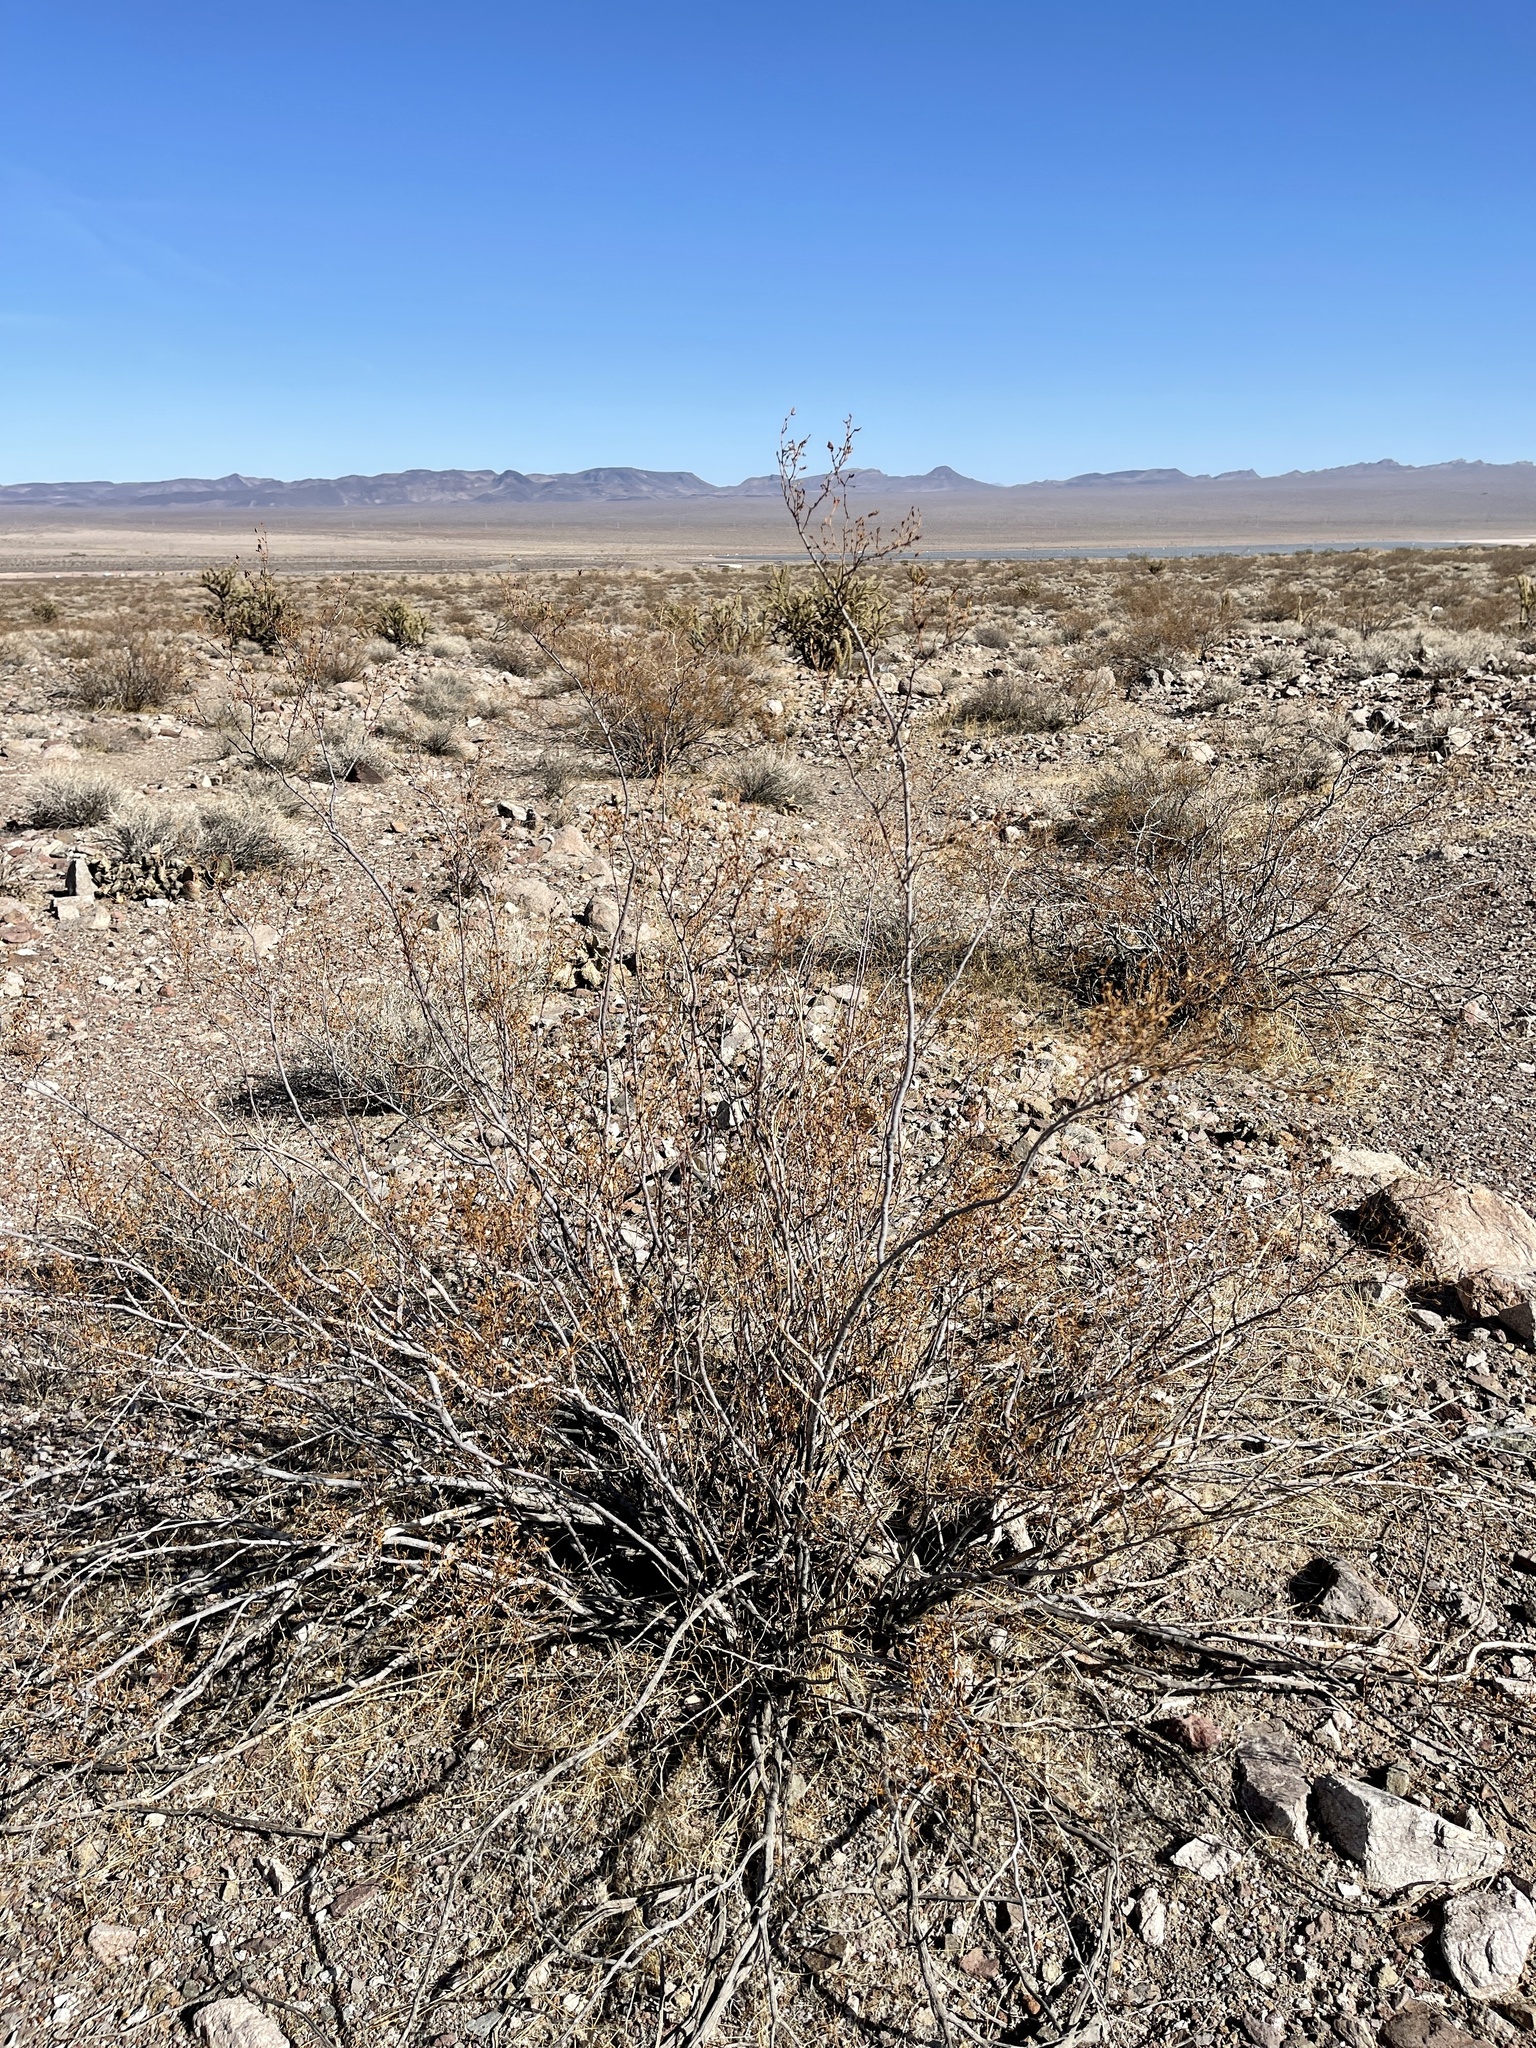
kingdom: Plantae
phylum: Tracheophyta
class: Magnoliopsida
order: Zygophyllales
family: Zygophyllaceae
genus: Larrea
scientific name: Larrea tridentata
